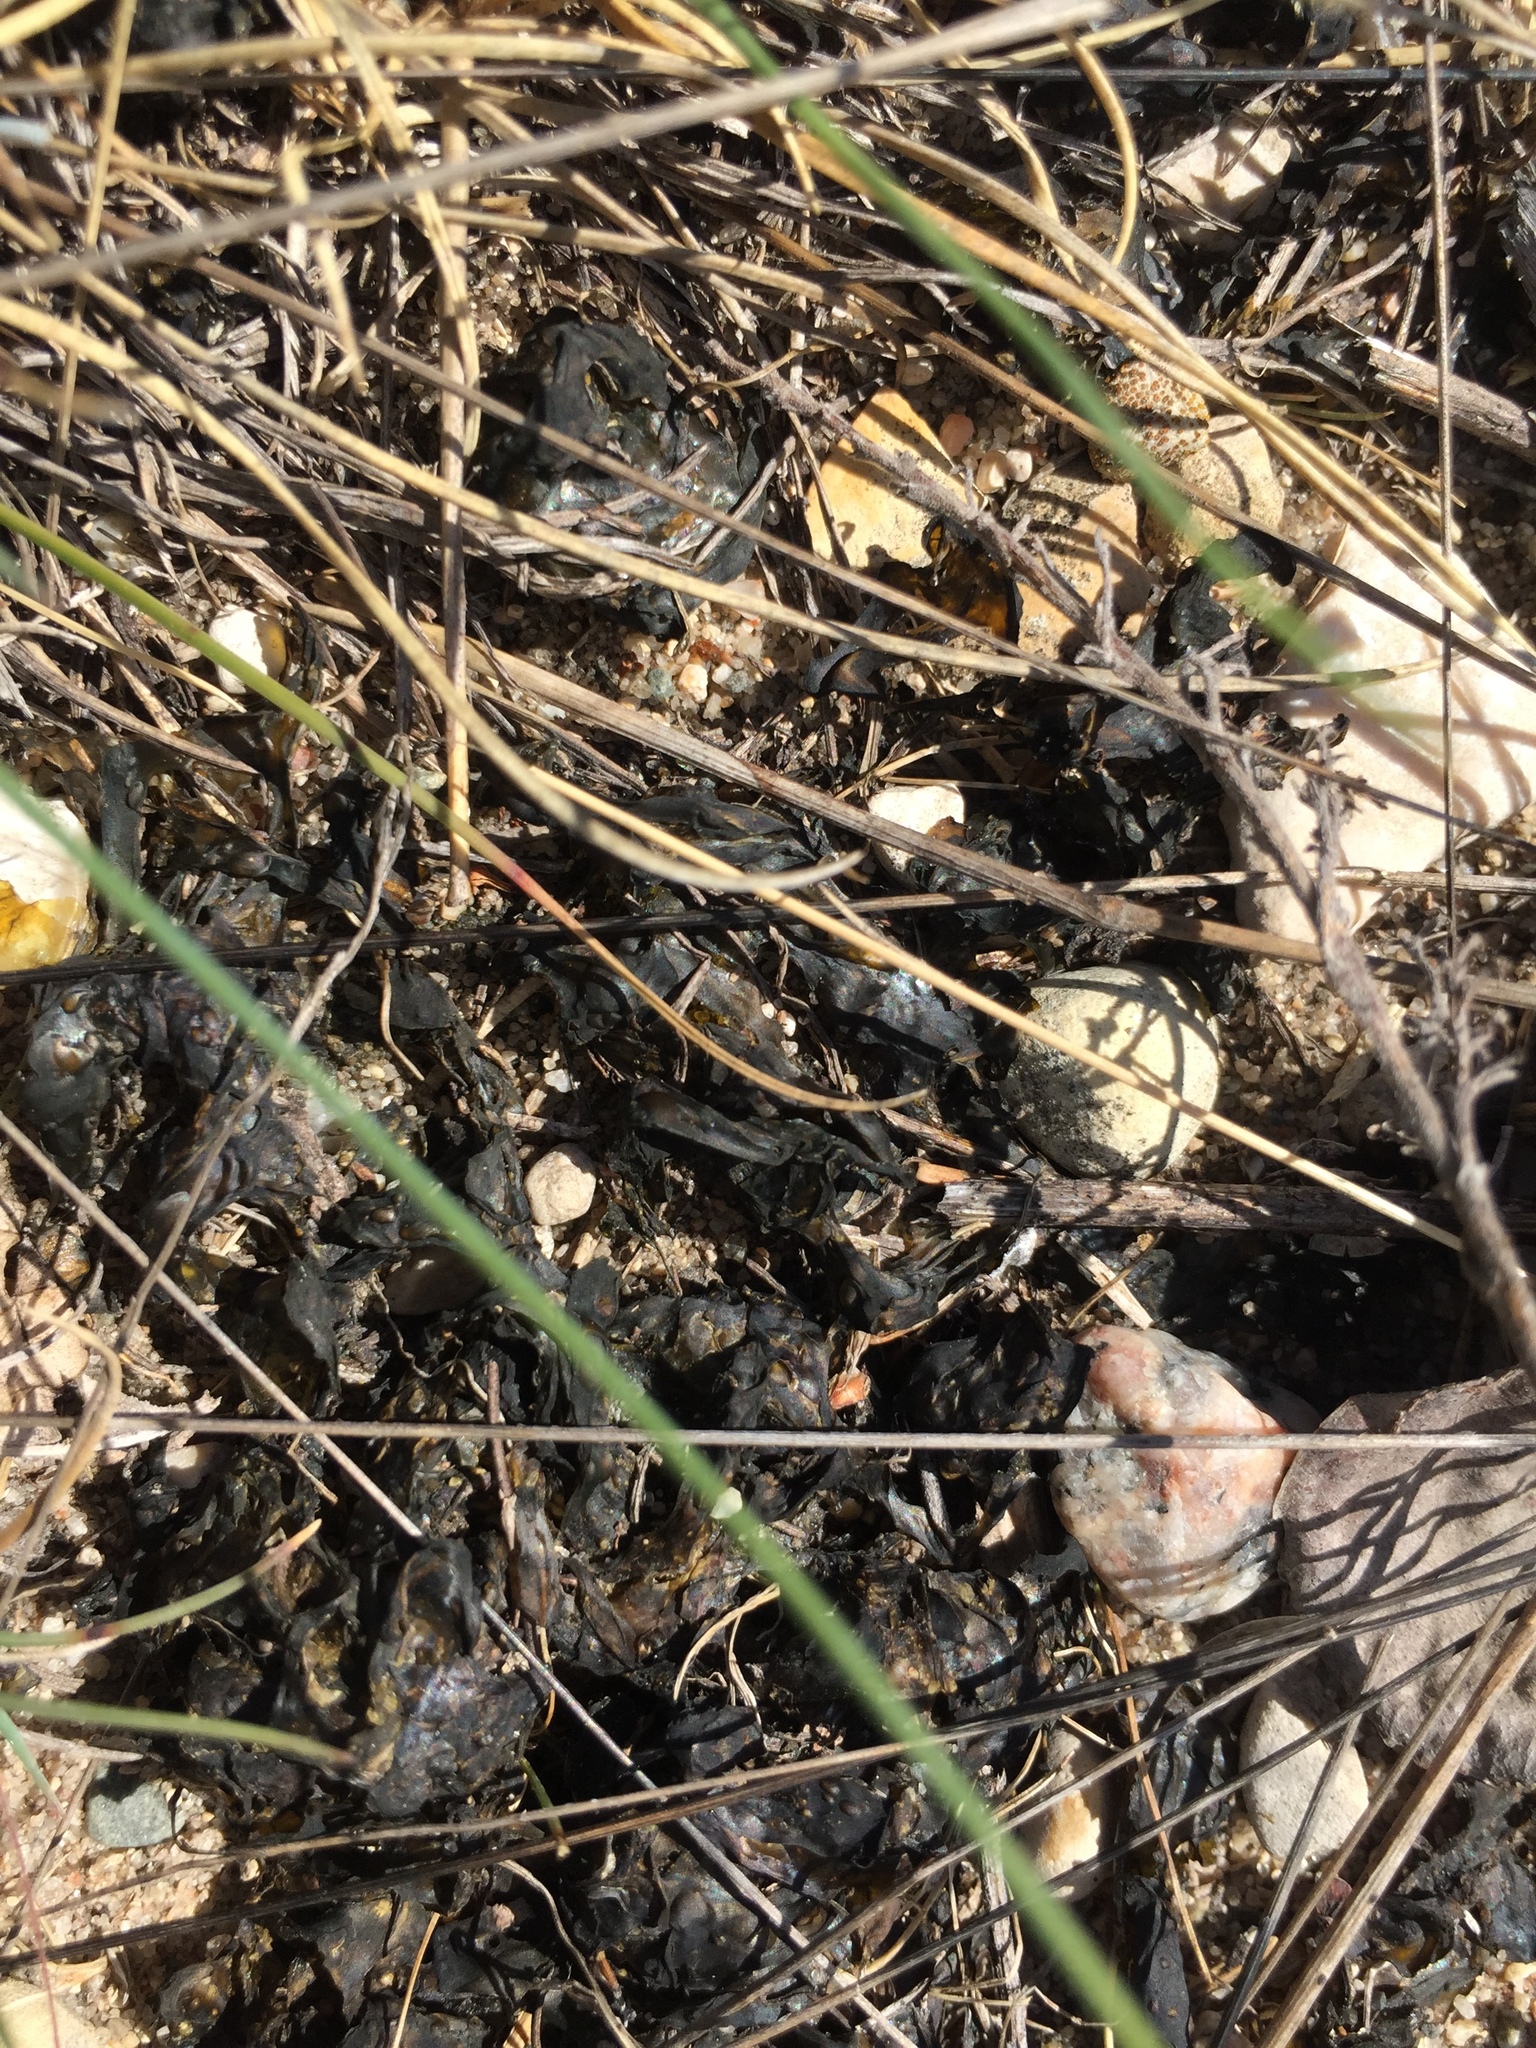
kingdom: Bacteria
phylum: Cyanobacteria
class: Cyanobacteriia
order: Cyanobacteriales
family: Nostocaceae
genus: Nostoc
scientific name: Nostoc commune
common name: Star jelly
